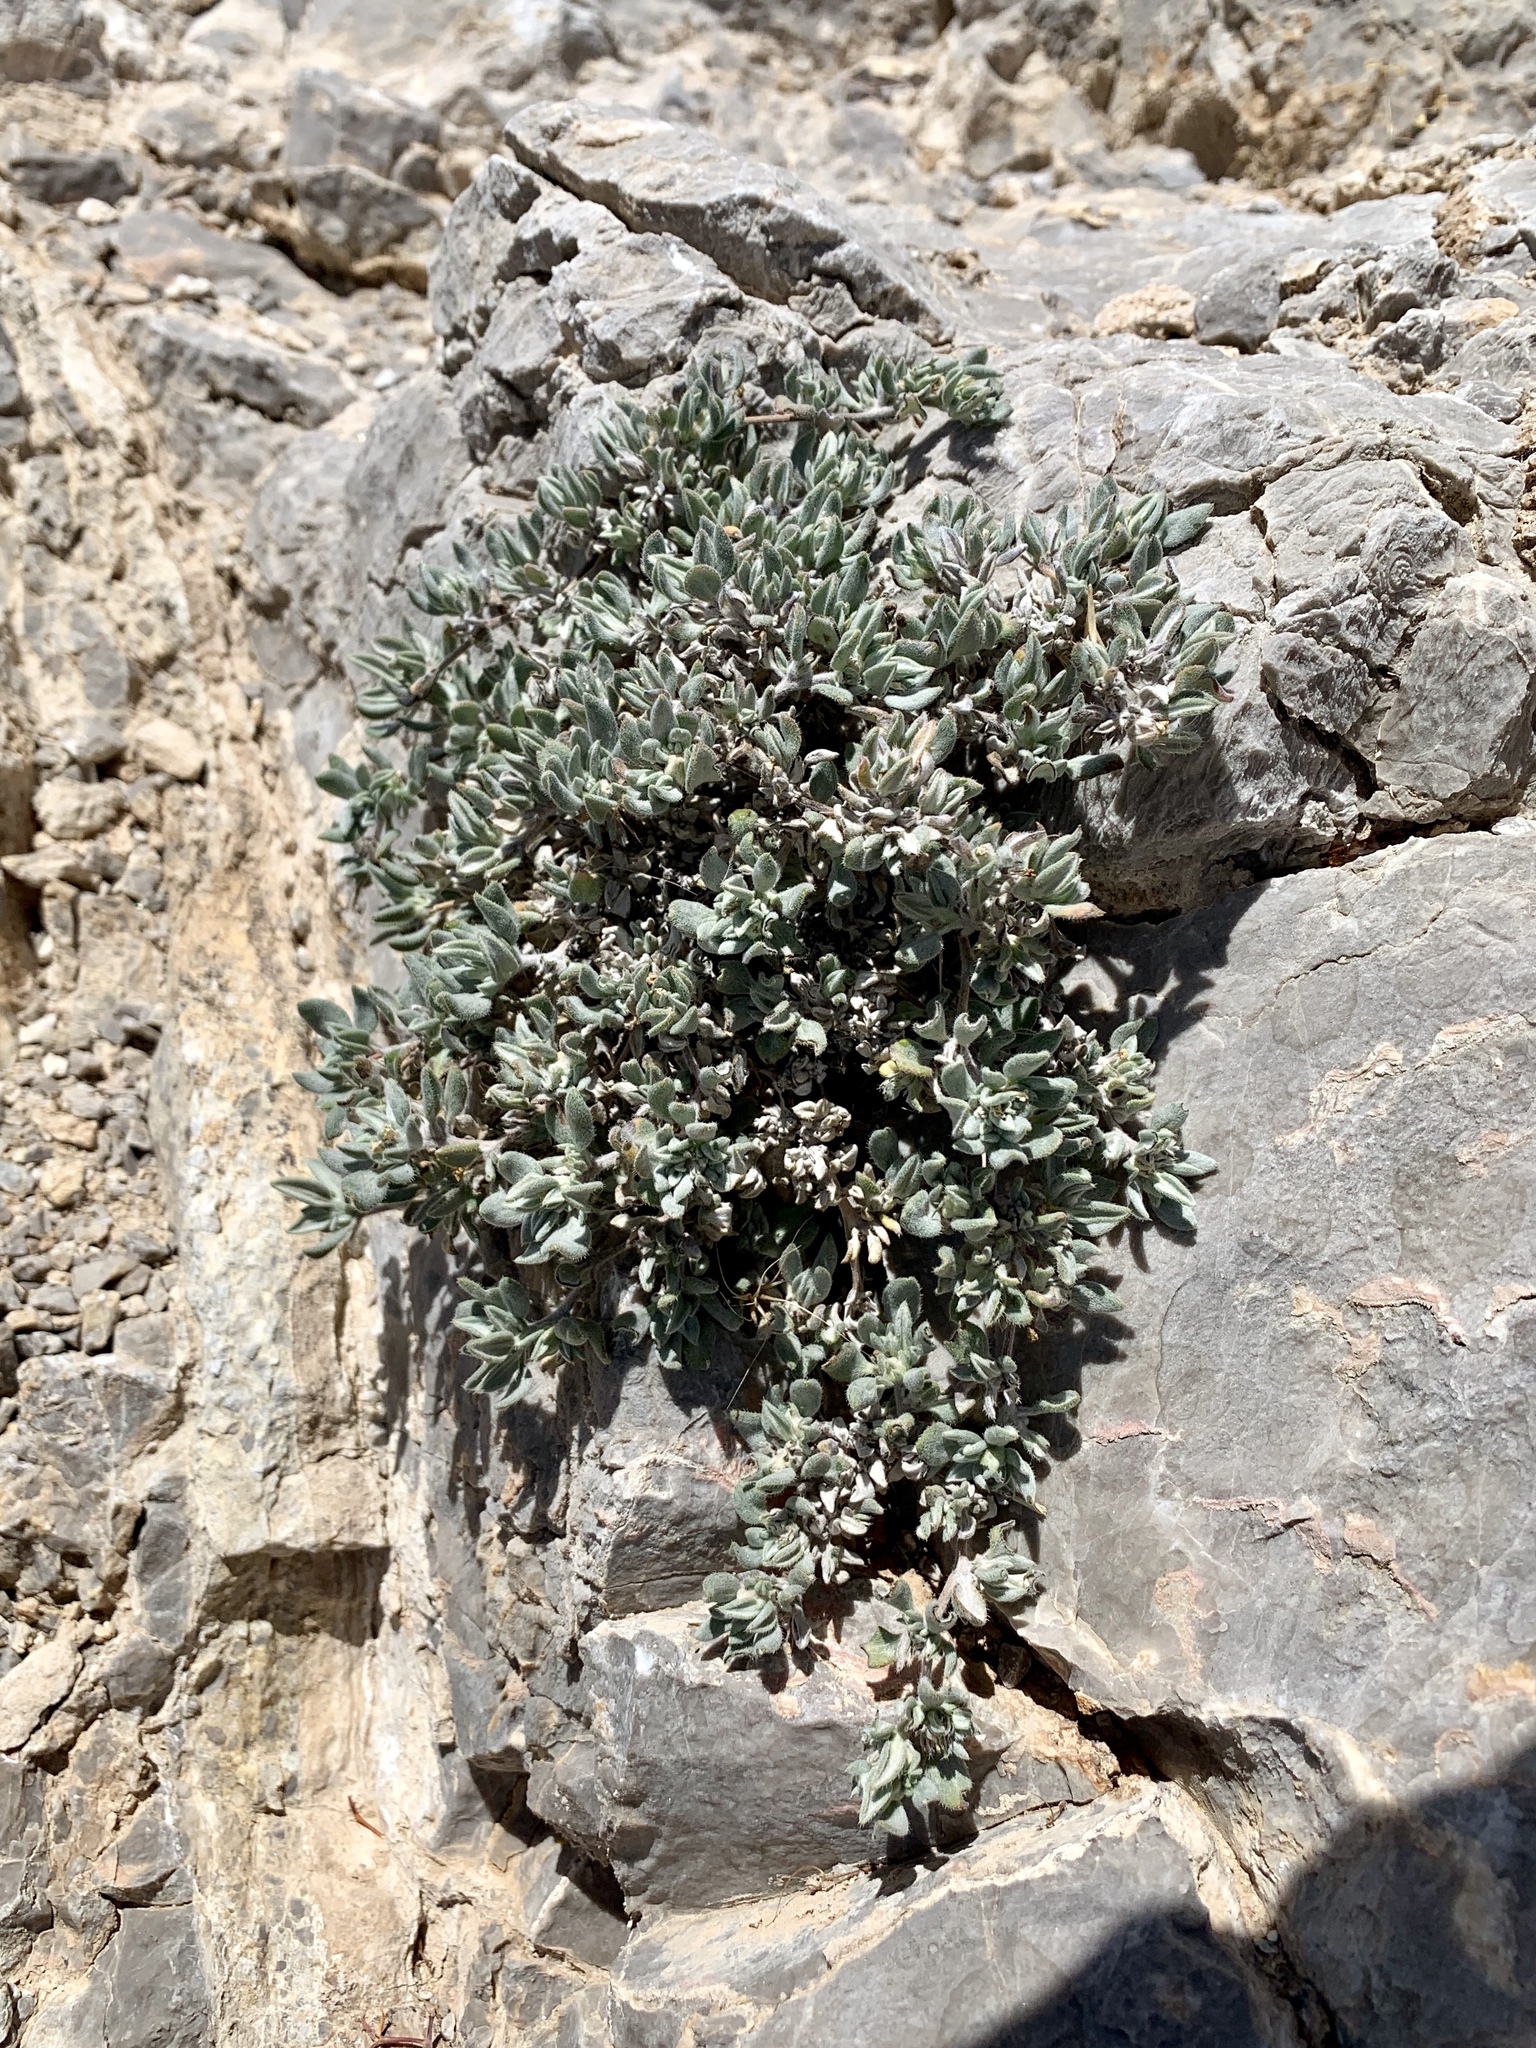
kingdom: Plantae
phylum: Tracheophyta
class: Magnoliopsida
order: Boraginales
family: Ehretiaceae
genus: Tiquilia
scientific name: Tiquilia canescens
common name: Hairy tiquilia
